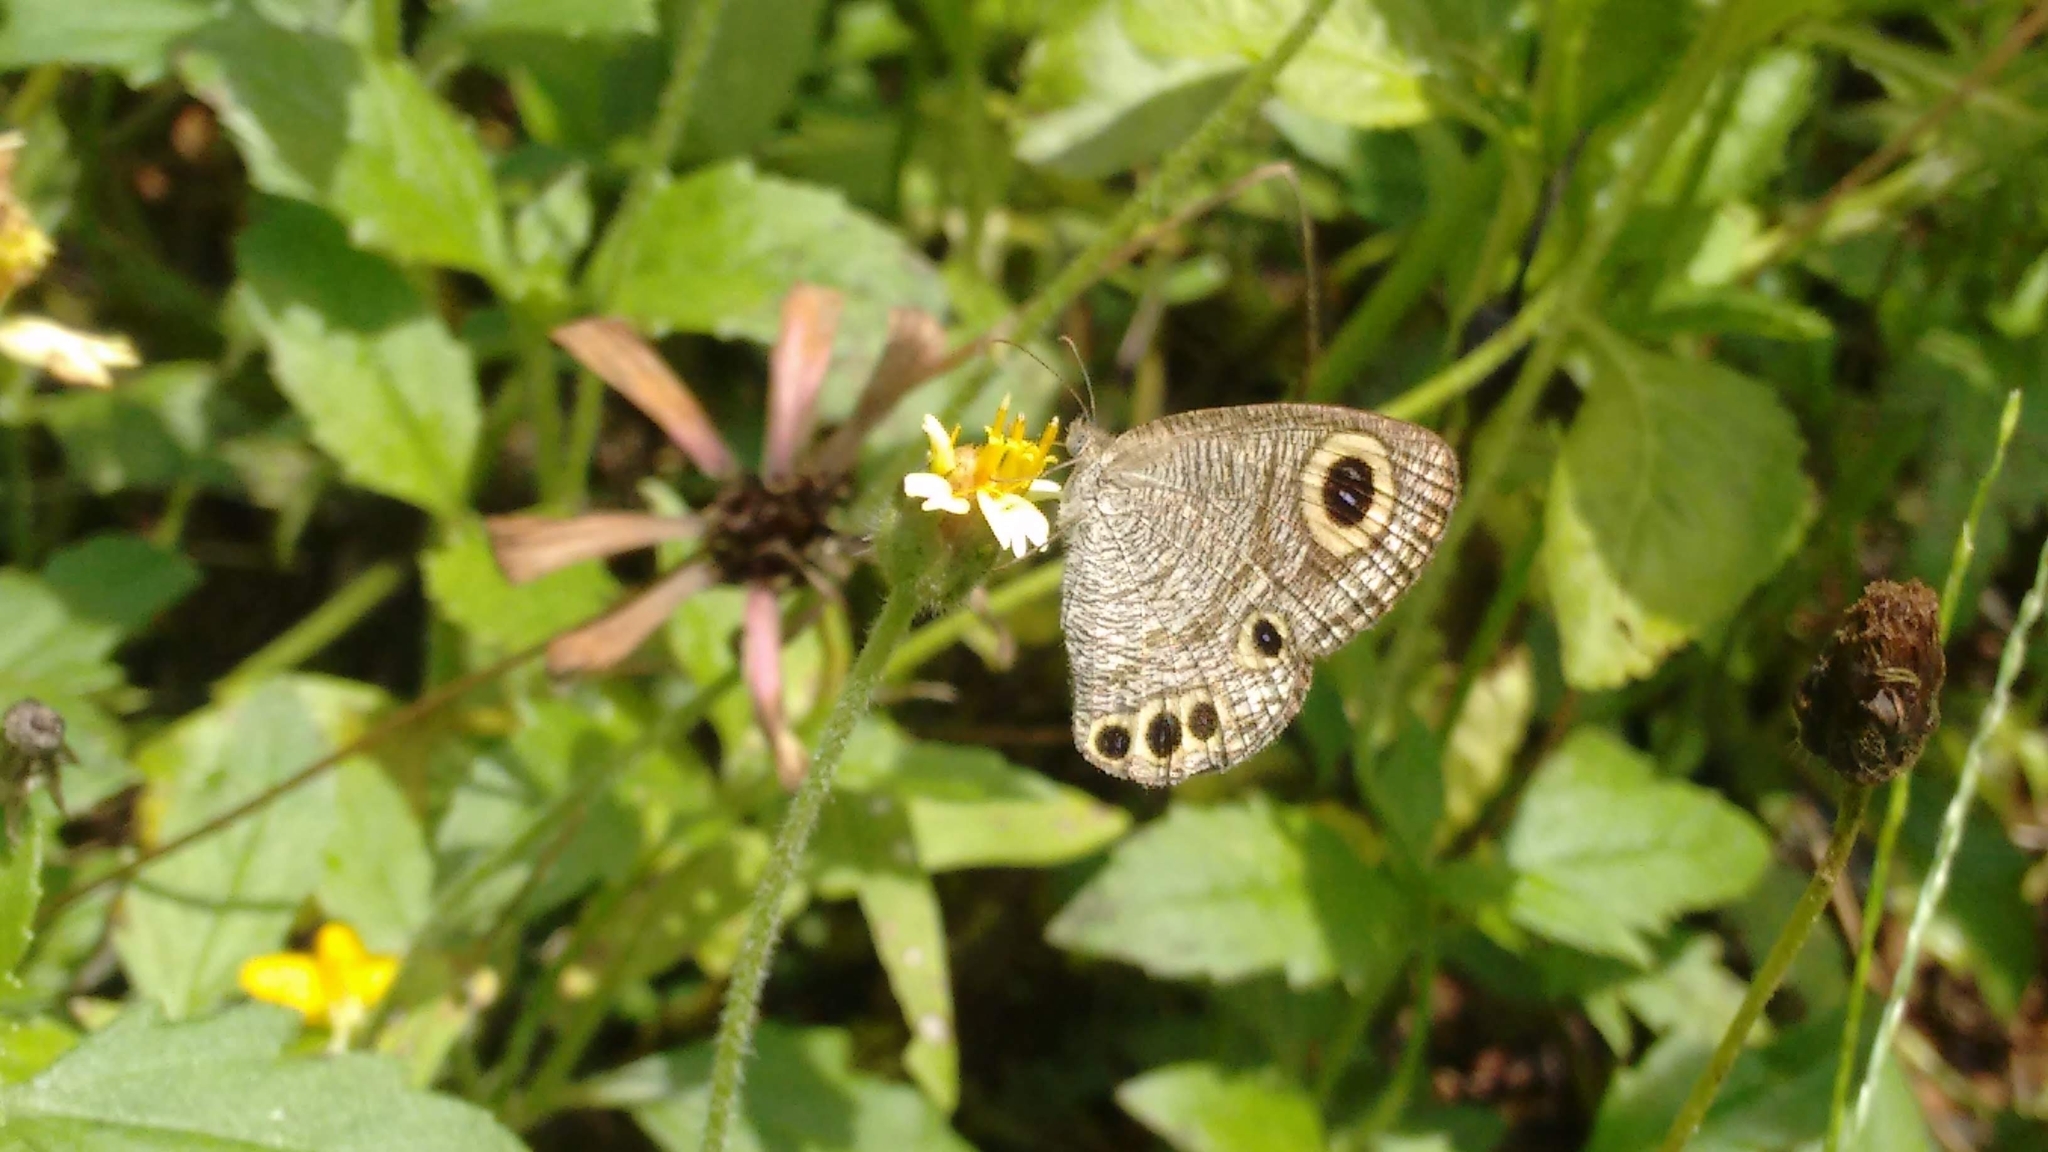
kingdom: Animalia
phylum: Arthropoda
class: Insecta
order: Lepidoptera
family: Nymphalidae
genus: Ypthima
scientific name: Ypthima huebneri
